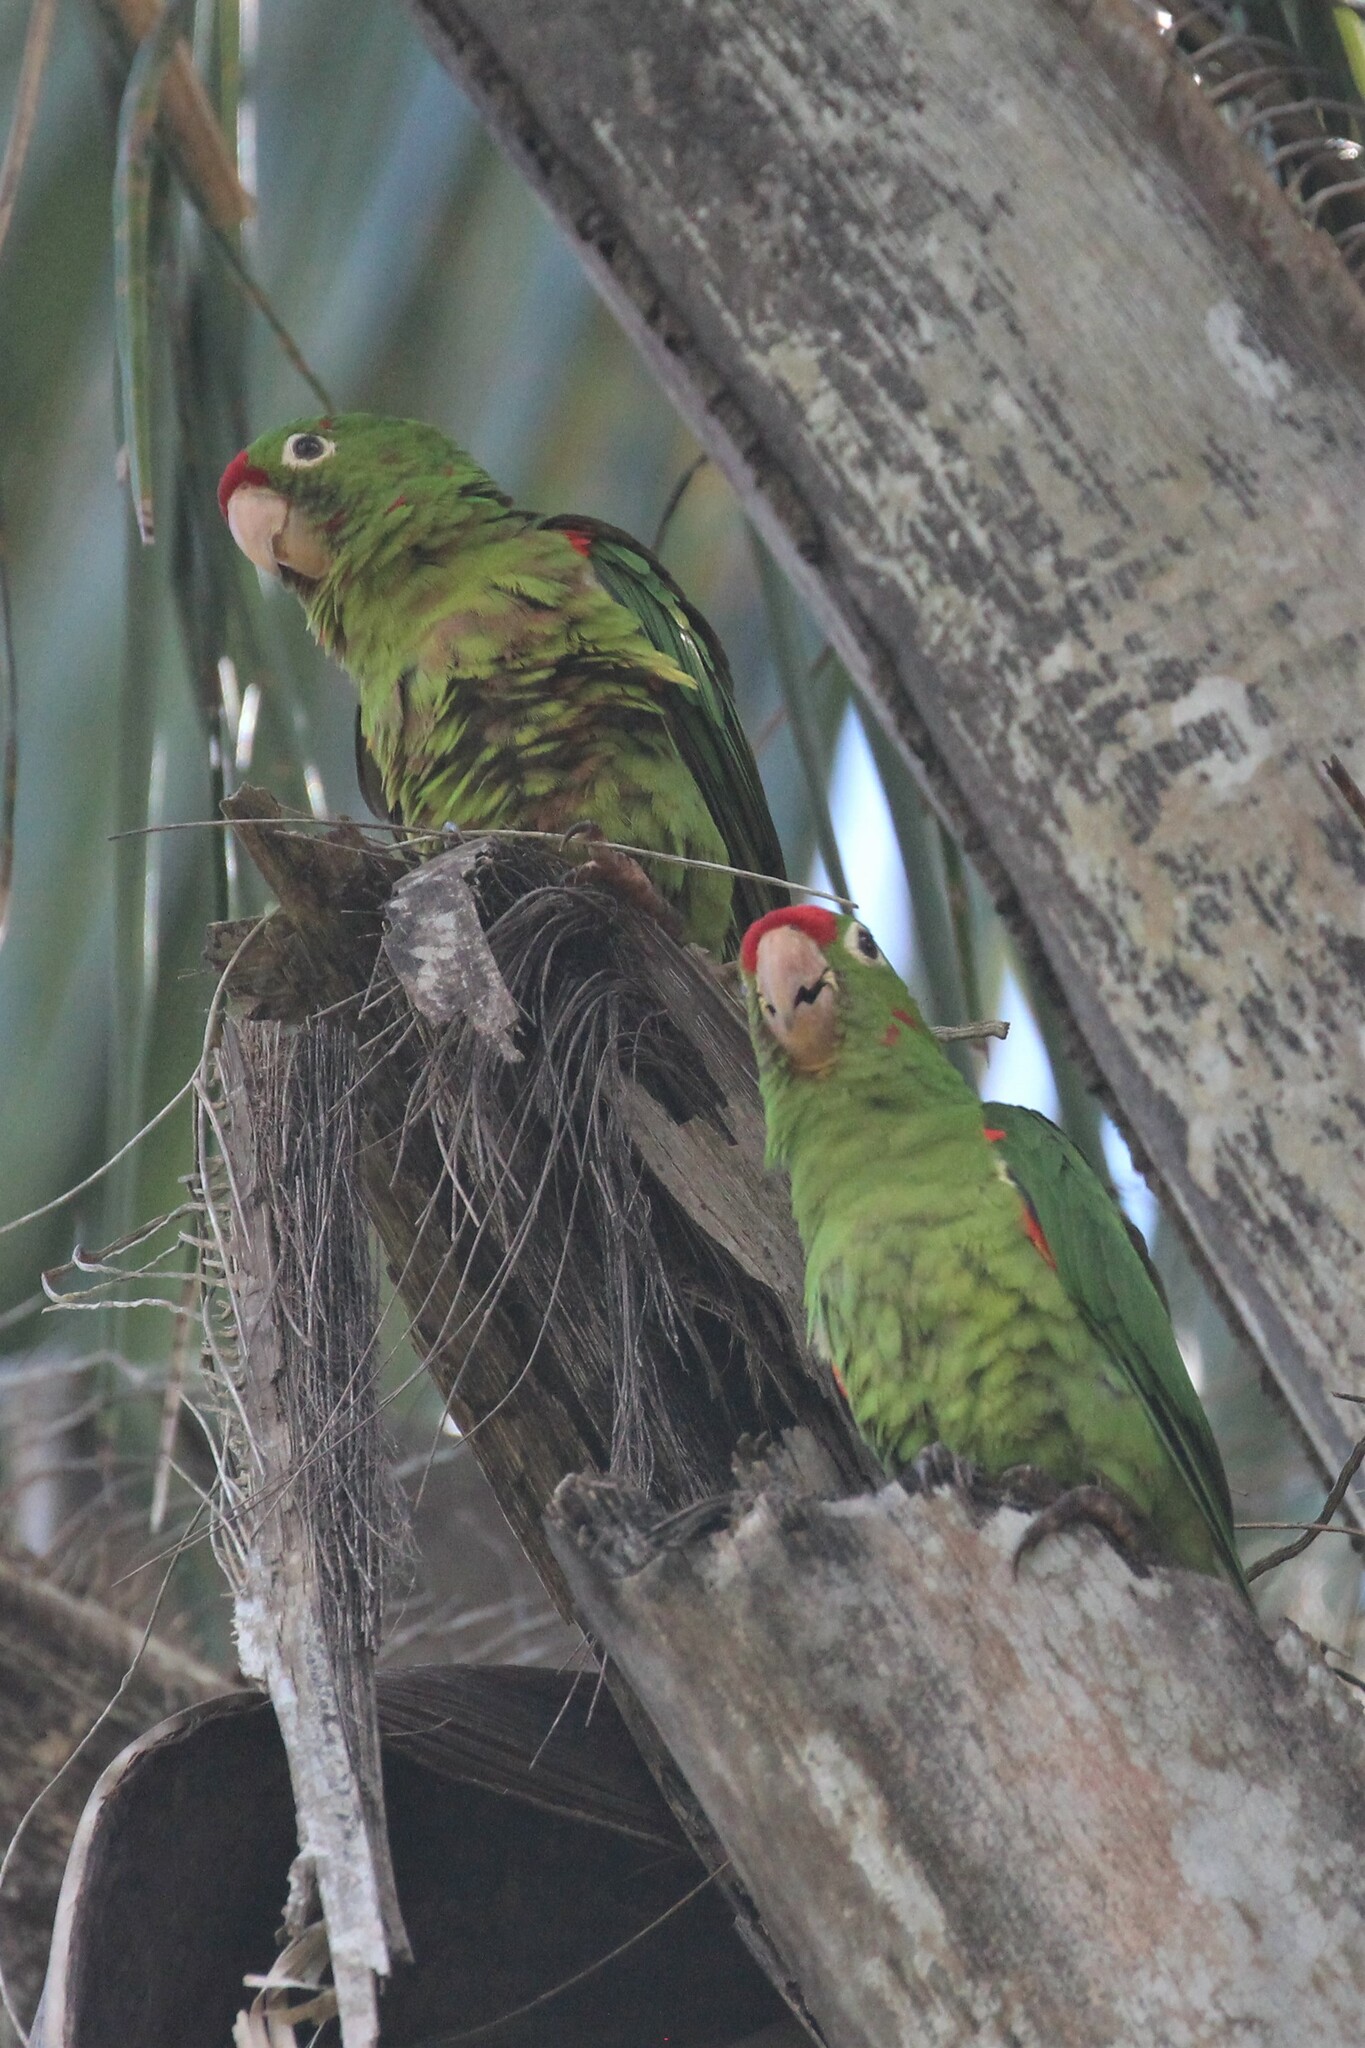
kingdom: Animalia
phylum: Chordata
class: Aves
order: Psittaciformes
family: Psittacidae
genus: Aratinga
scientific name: Aratinga finschi
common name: Crimson-fronted parakeet
